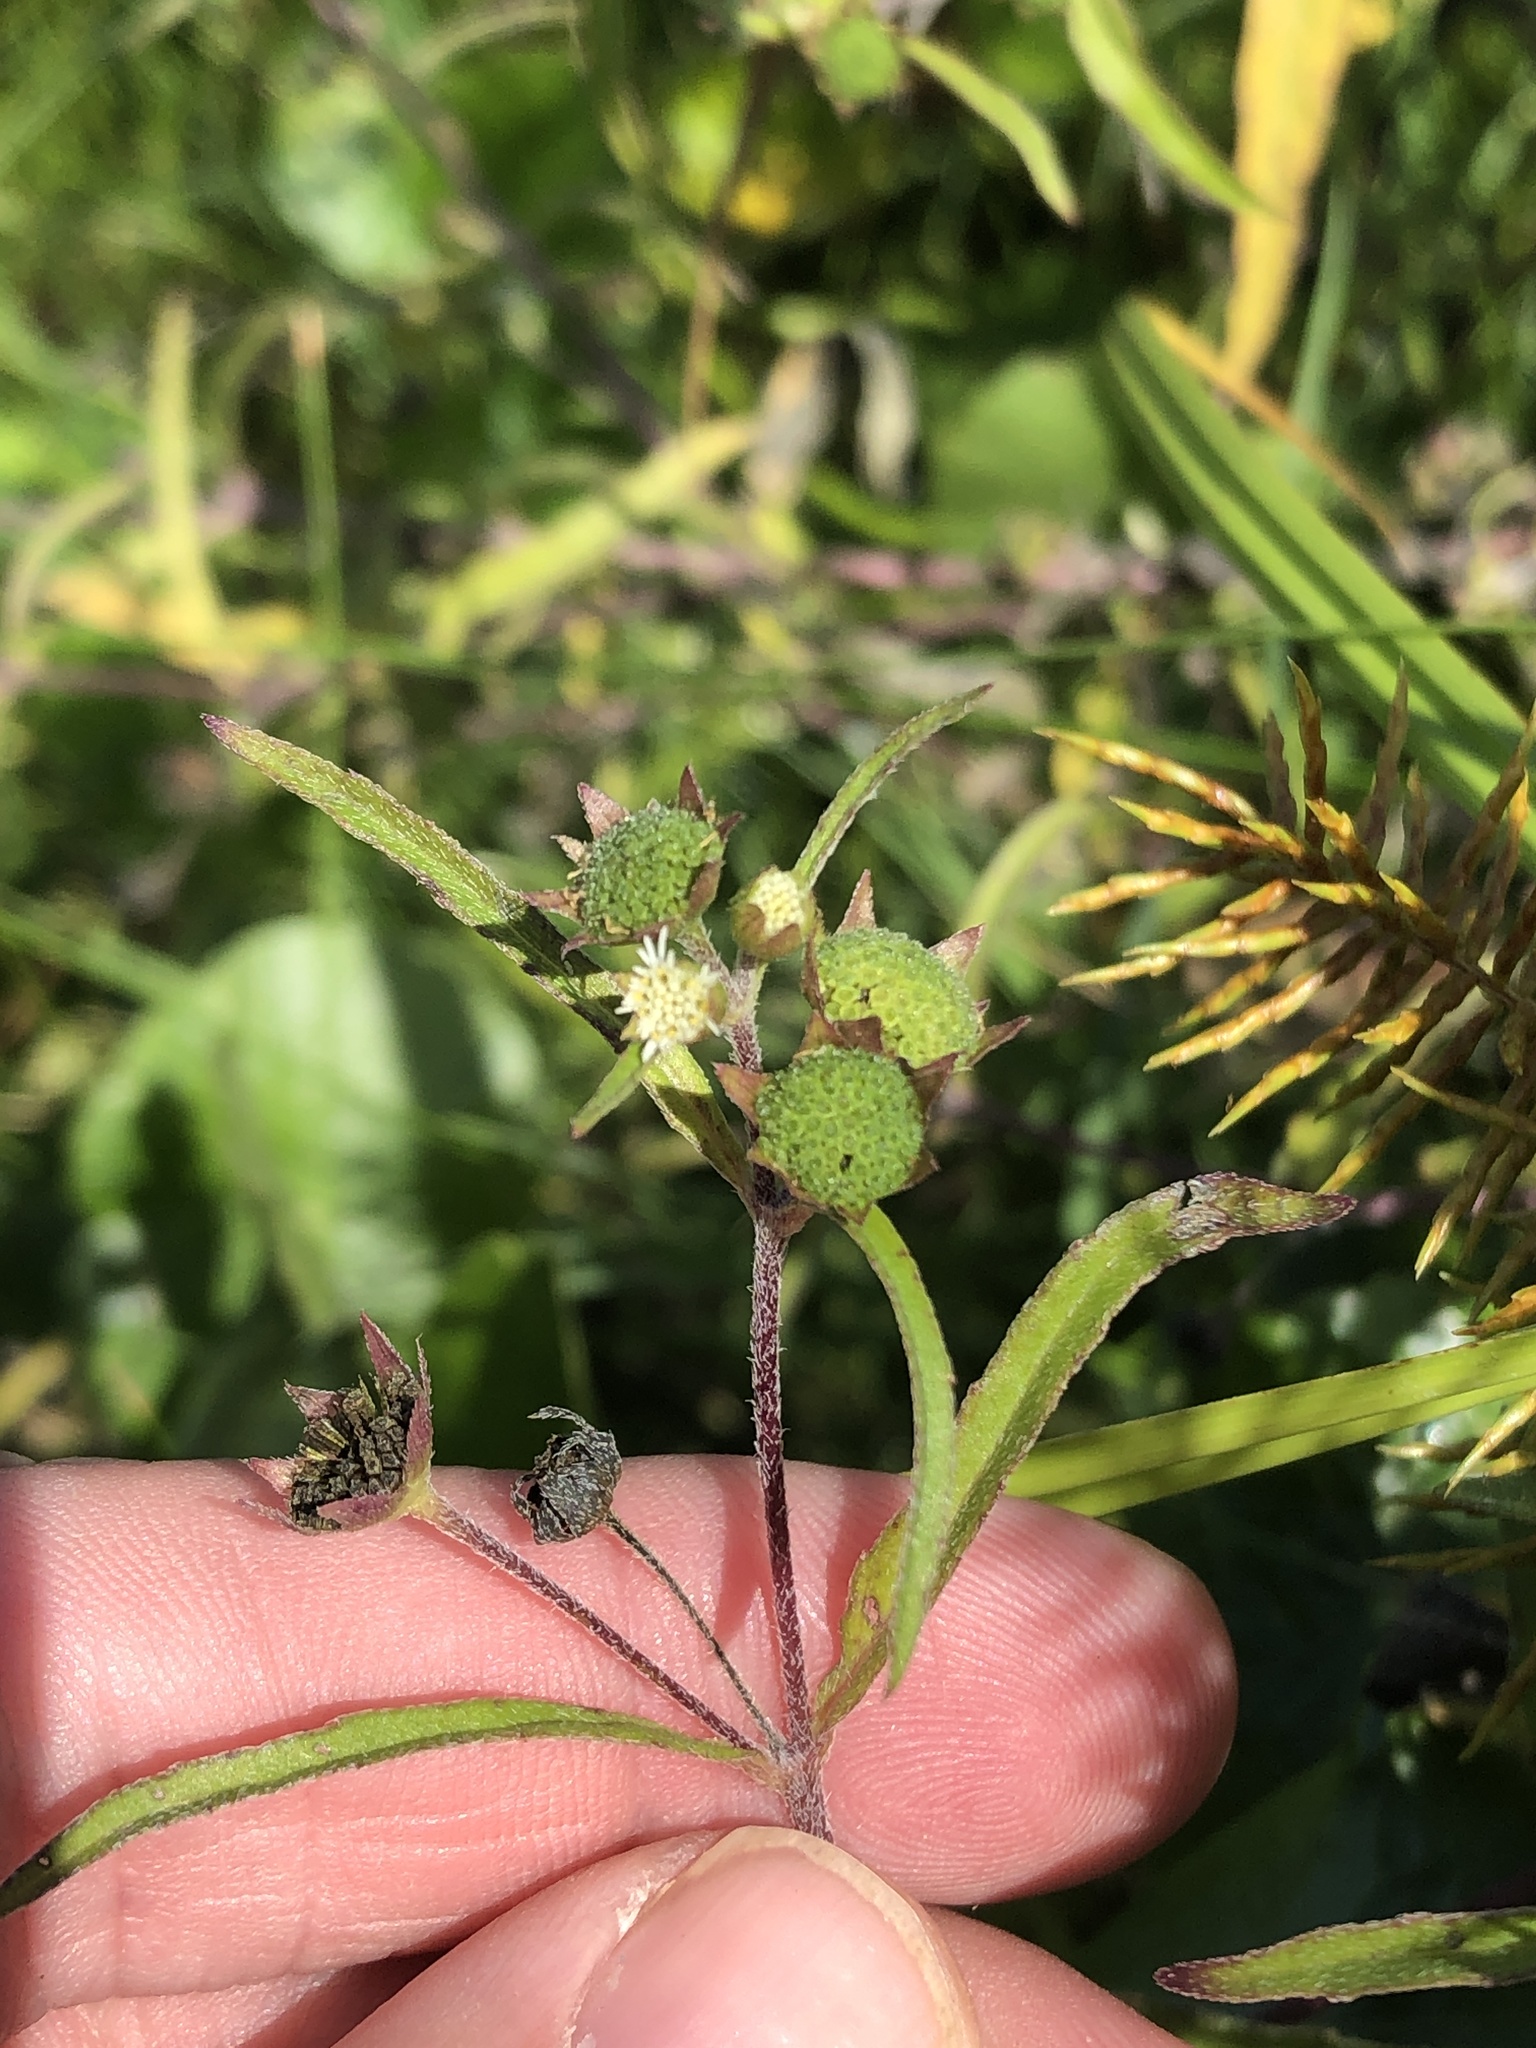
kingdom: Plantae
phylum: Tracheophyta
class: Magnoliopsida
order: Asterales
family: Asteraceae
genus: Eclipta
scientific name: Eclipta prostrata
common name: False daisy
